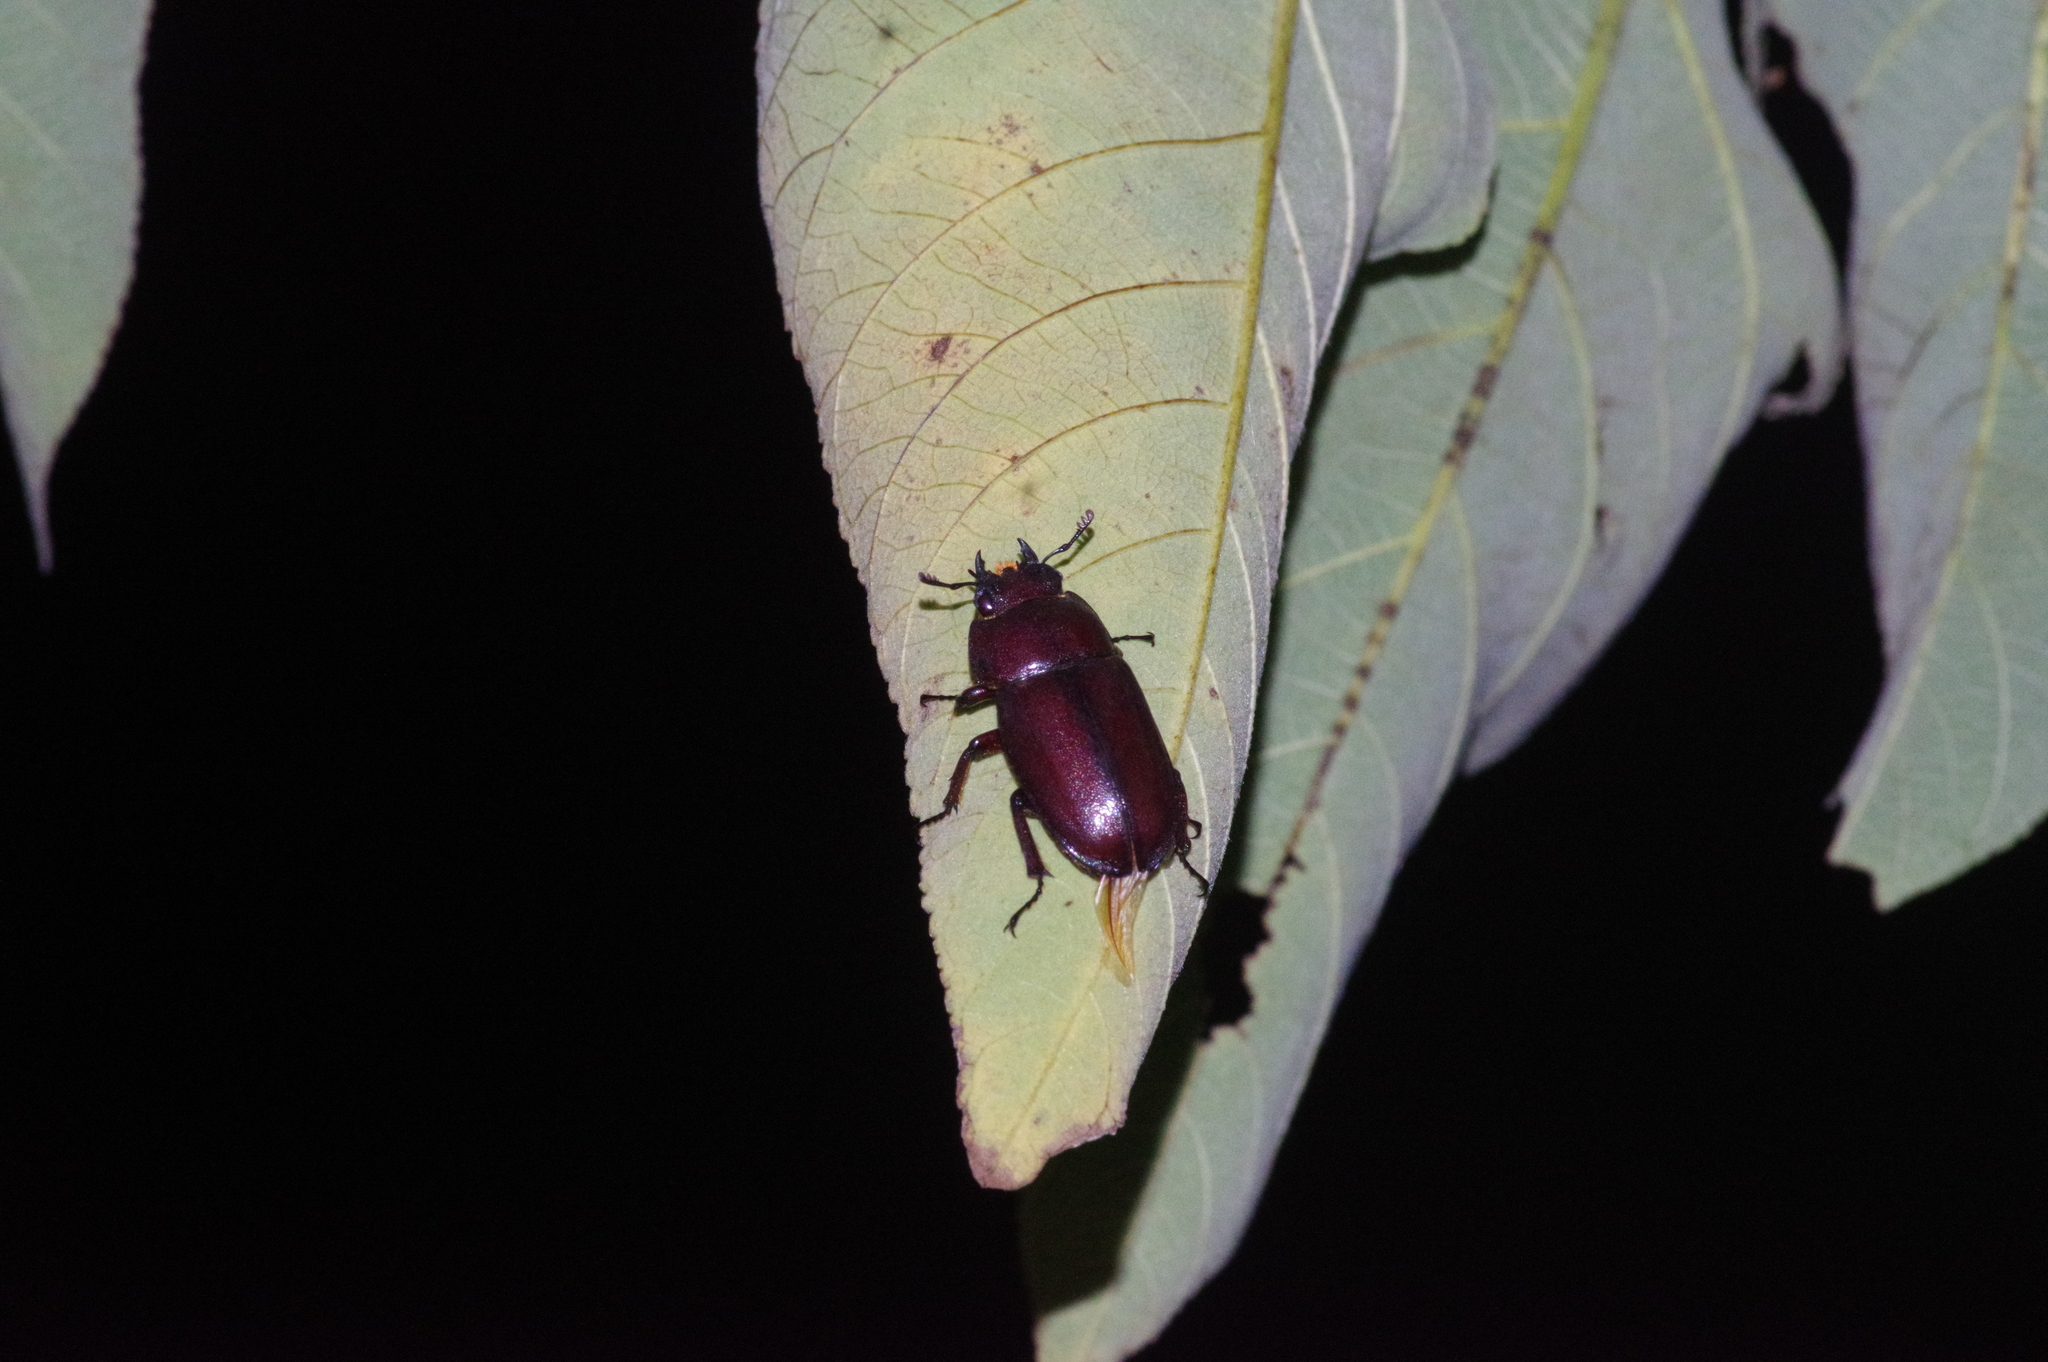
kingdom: Animalia
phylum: Arthropoda
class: Insecta
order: Coleoptera
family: Lucanidae
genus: Prosopocoilus
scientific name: Prosopocoilus dissimilis
